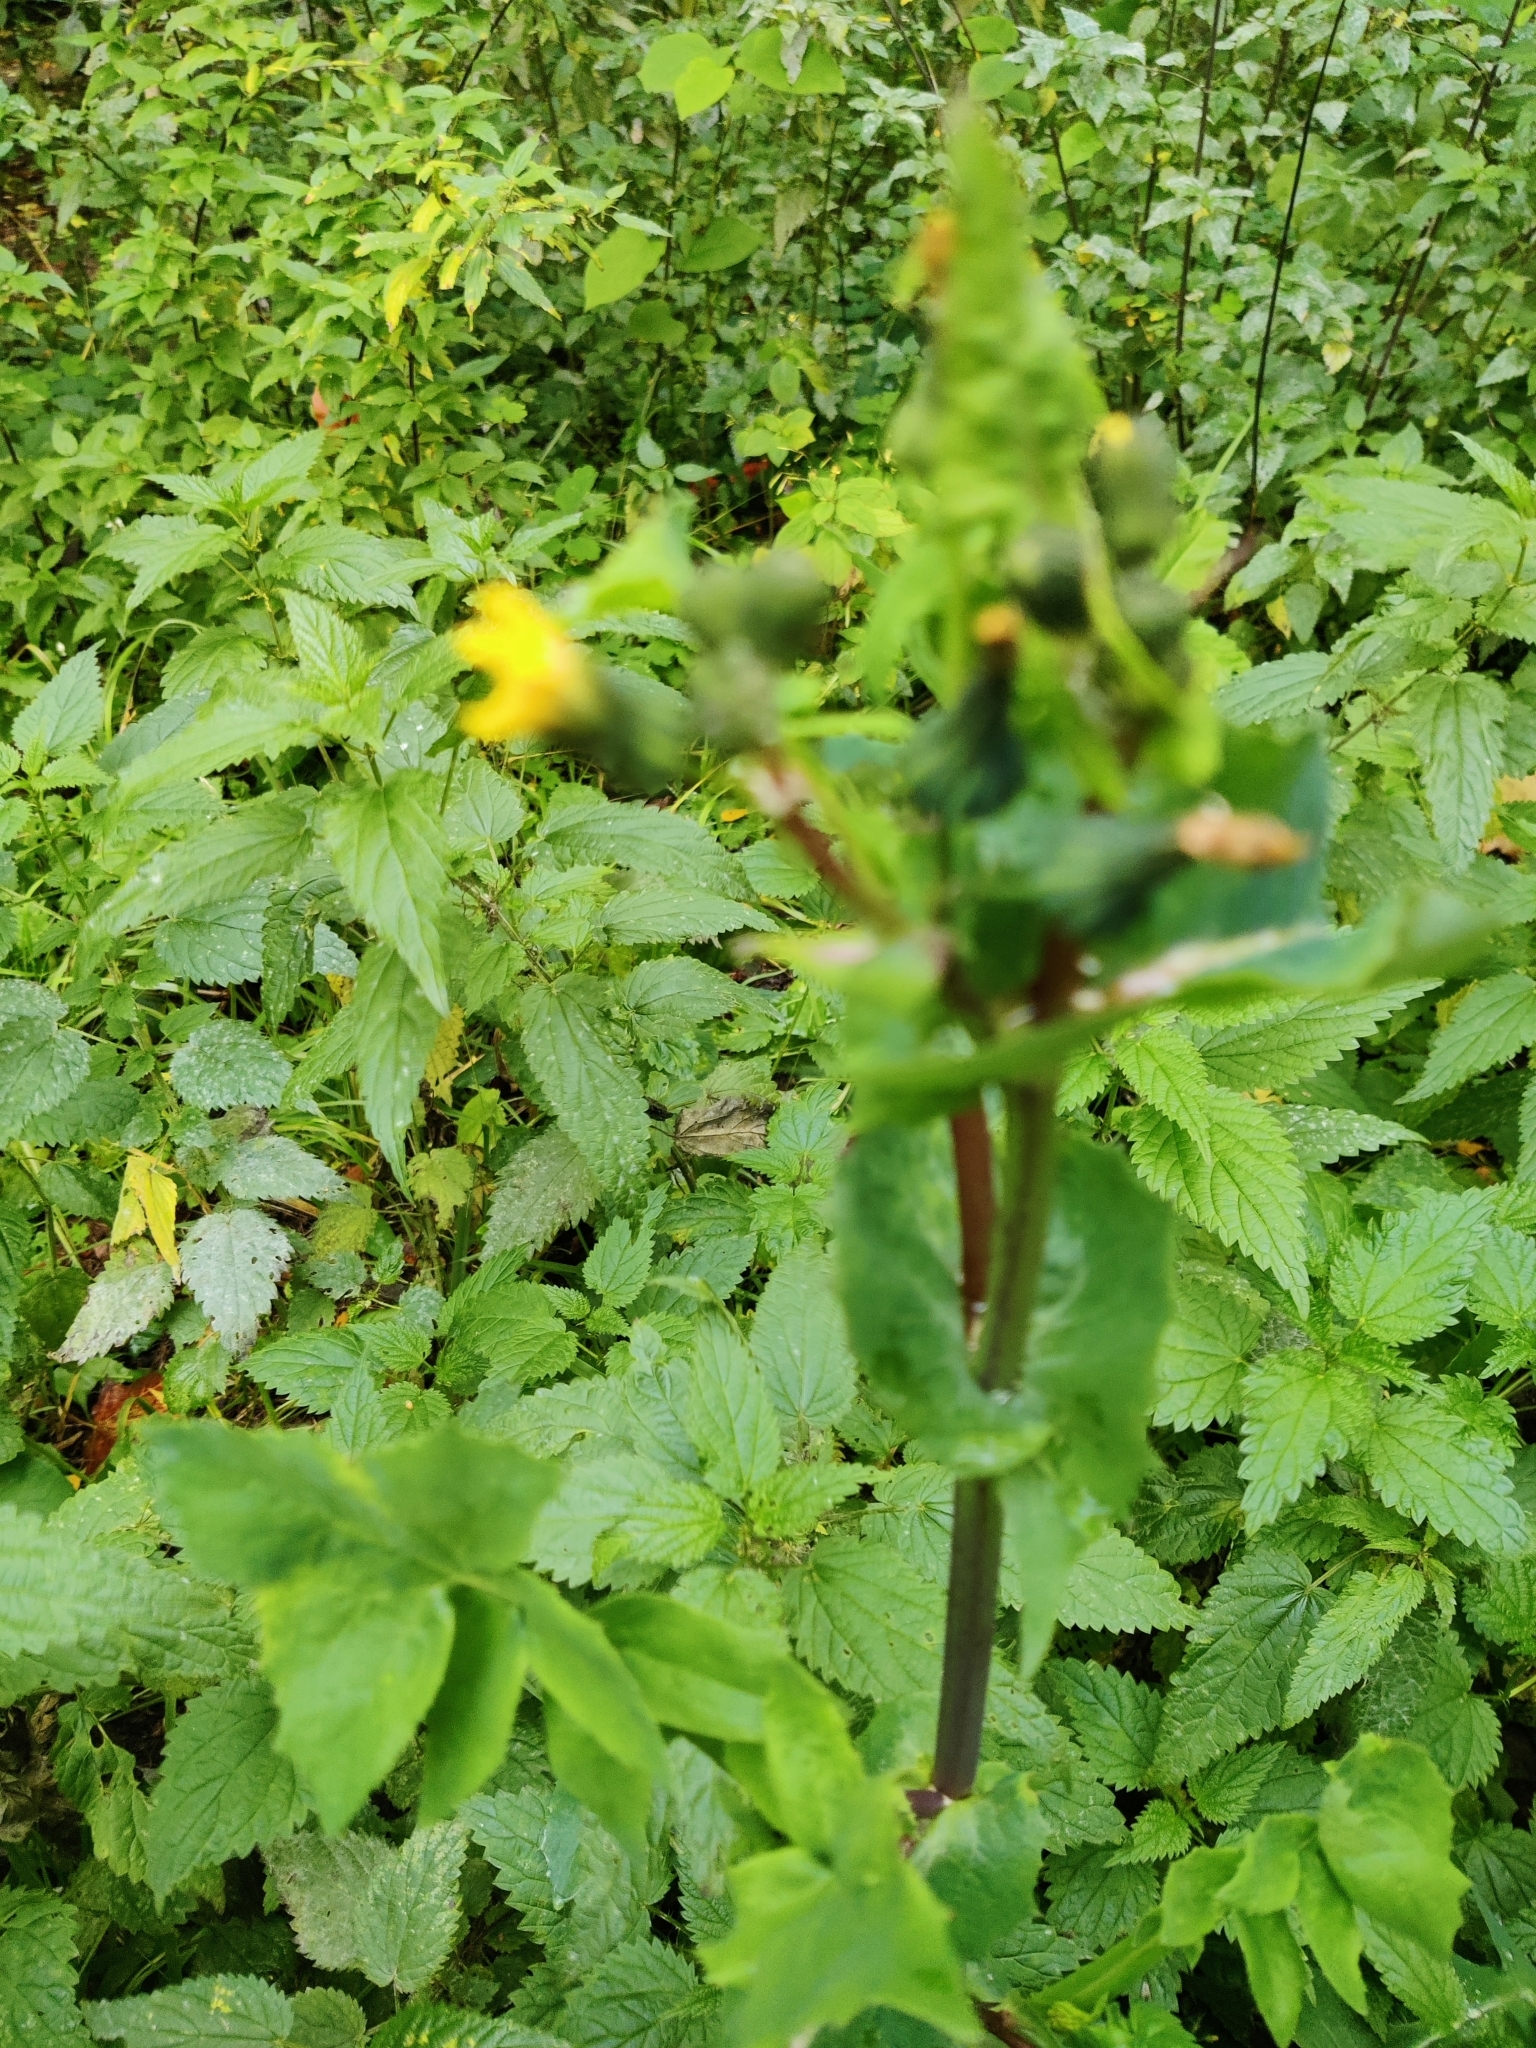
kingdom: Plantae
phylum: Tracheophyta
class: Magnoliopsida
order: Asterales
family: Asteraceae
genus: Sonchus
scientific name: Sonchus oleraceus
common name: Common sowthistle
